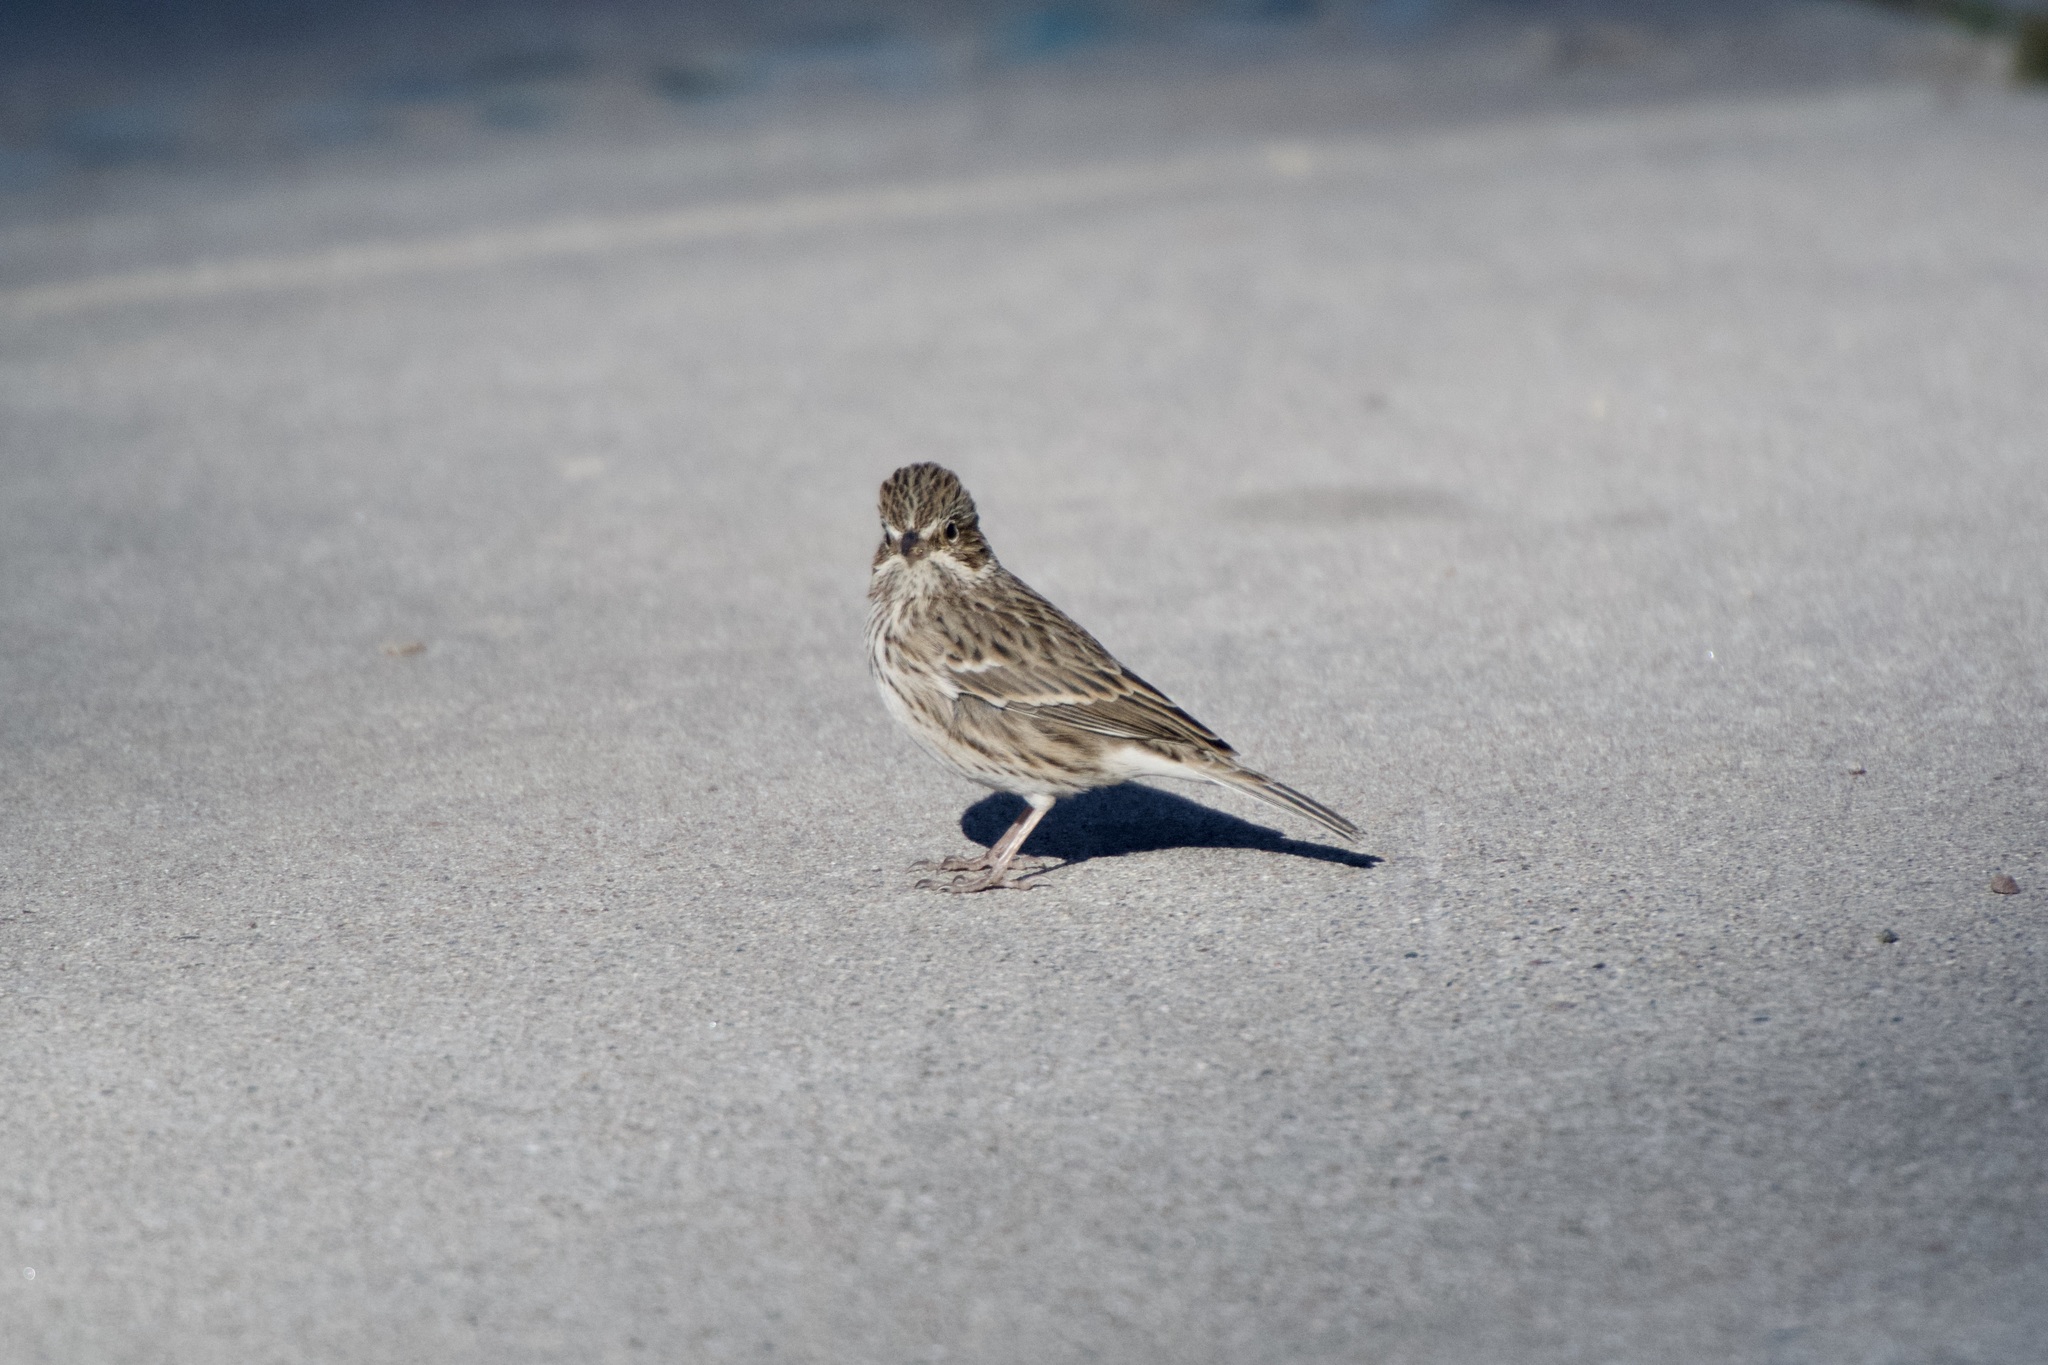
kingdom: Animalia
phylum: Chordata
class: Aves
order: Passeriformes
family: Passerellidae
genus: Pooecetes
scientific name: Pooecetes gramineus
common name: Vesper sparrow
